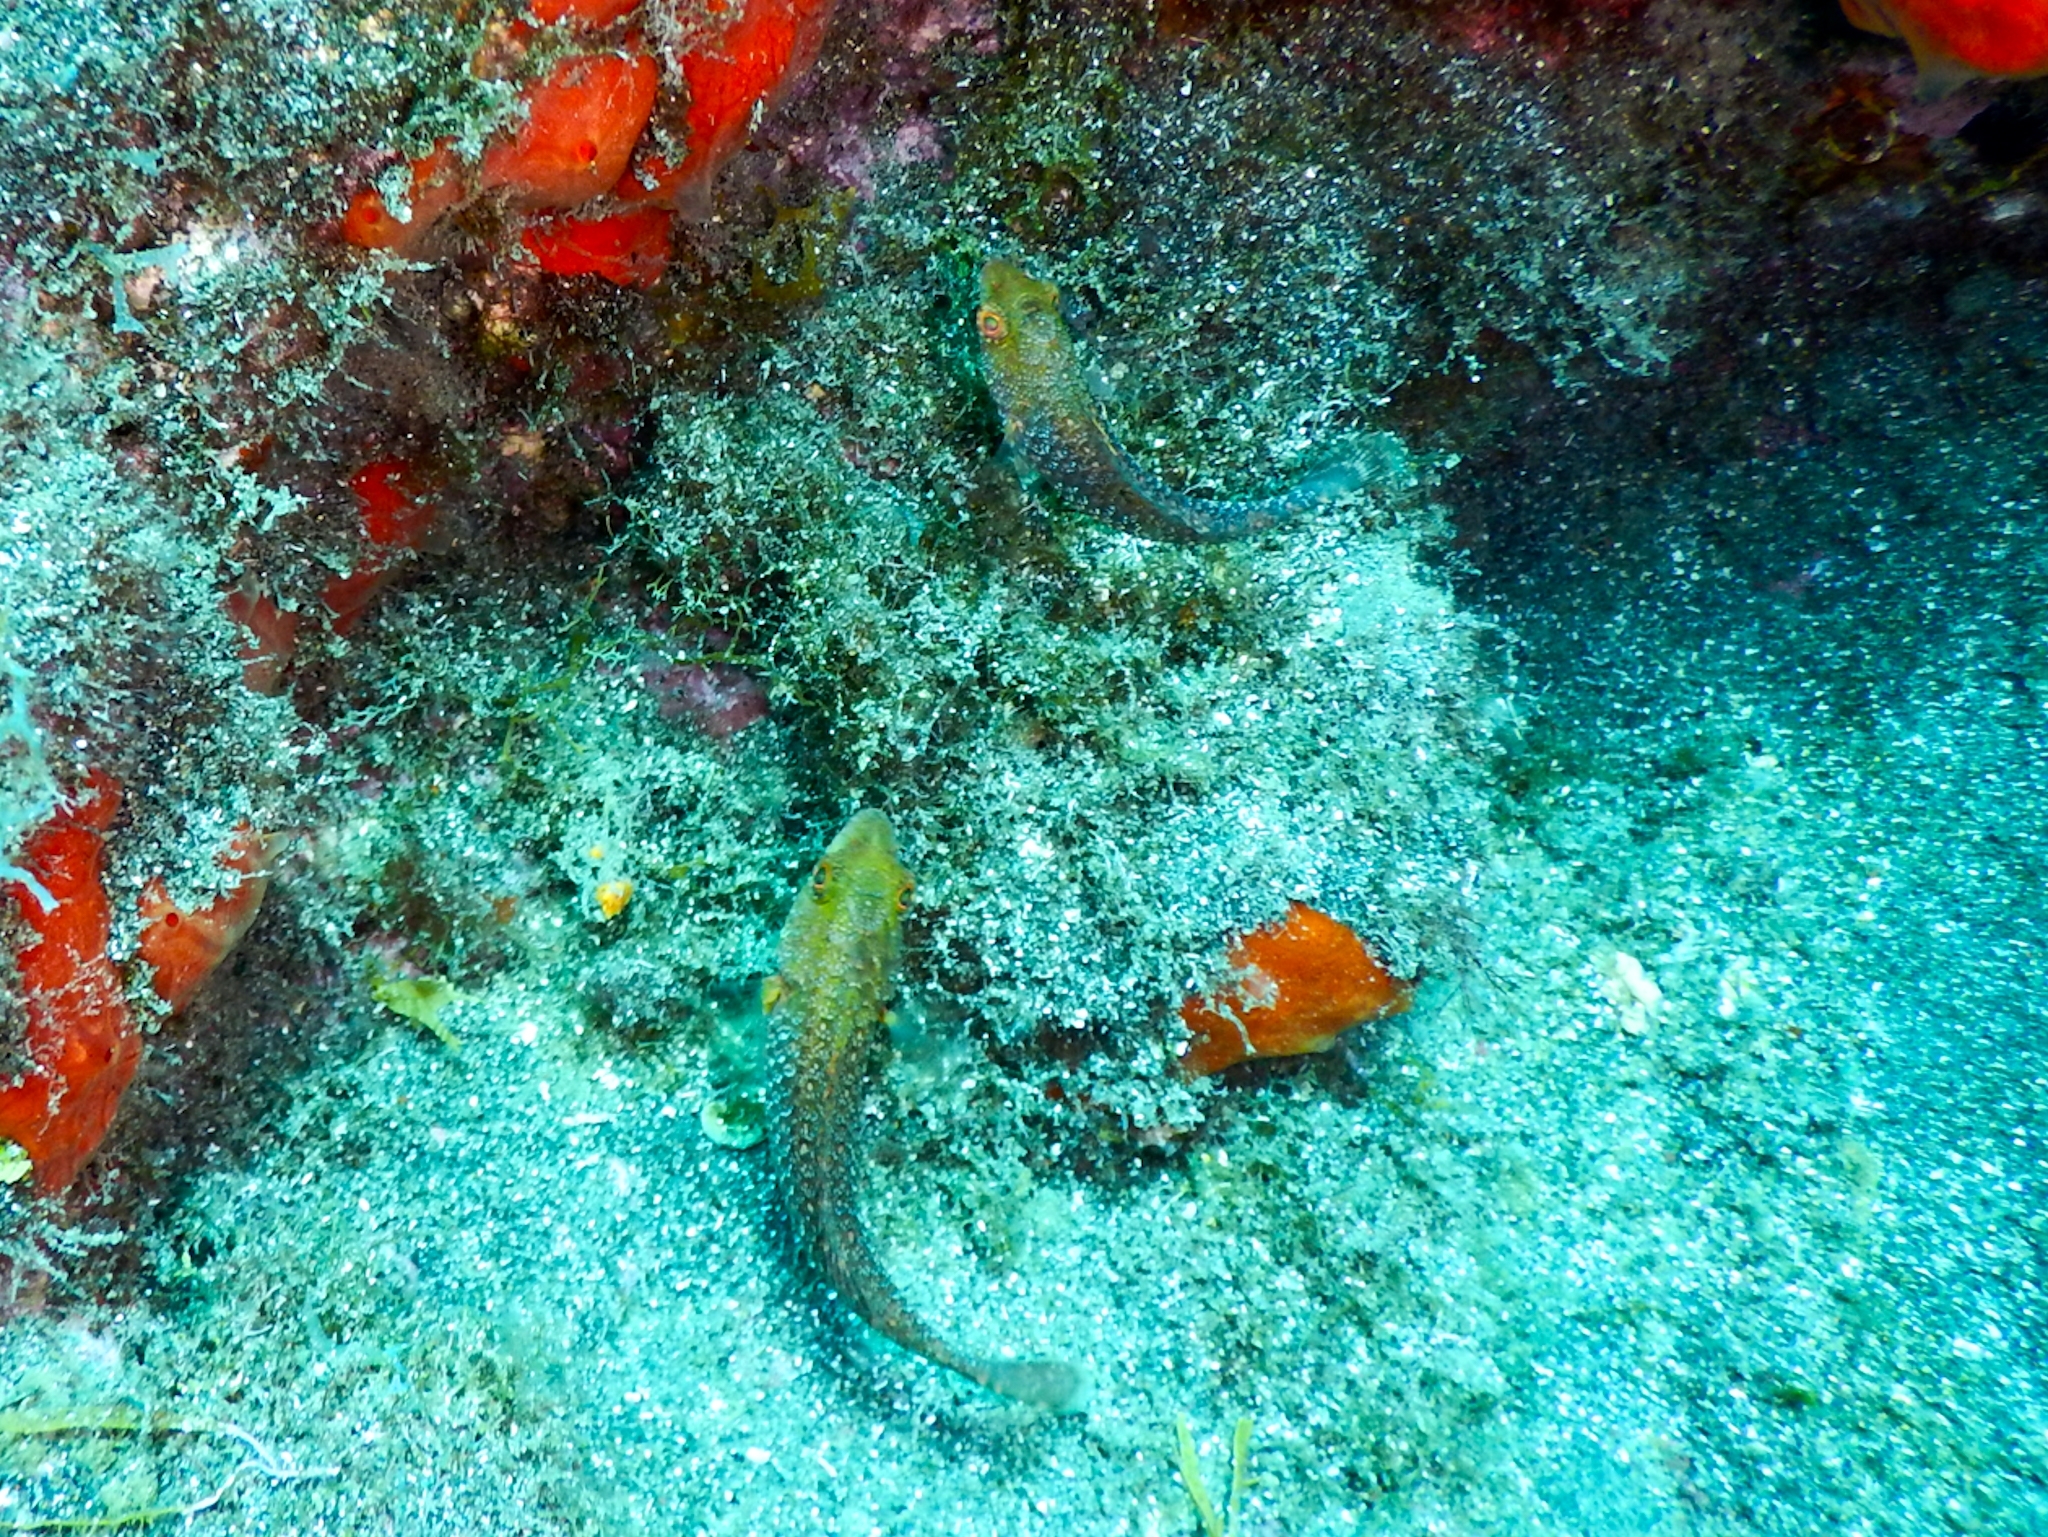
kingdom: Animalia
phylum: Chordata
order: Perciformes
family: Scaridae
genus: Sparisoma
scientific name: Sparisoma cretense
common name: Parrotfish
